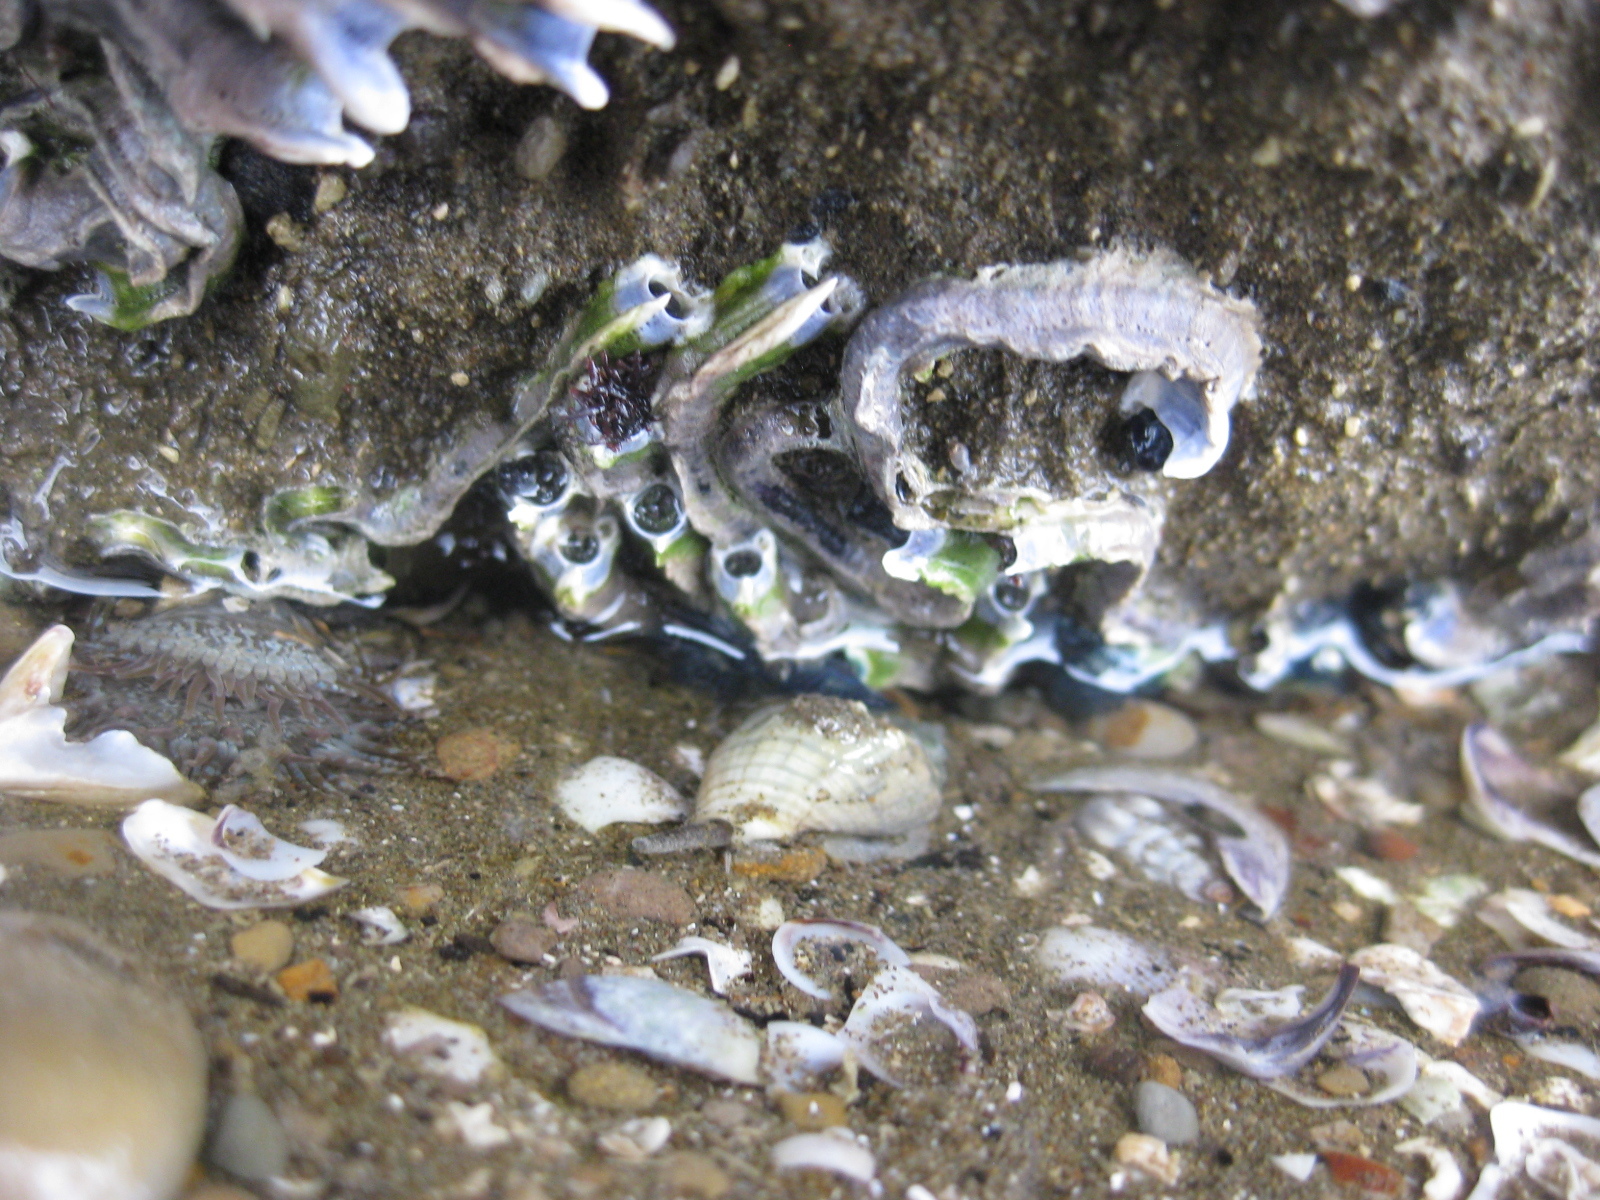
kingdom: Animalia
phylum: Annelida
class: Polychaeta
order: Sabellida
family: Serpulidae
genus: Spirobranchus
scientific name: Spirobranchus cariniferus
